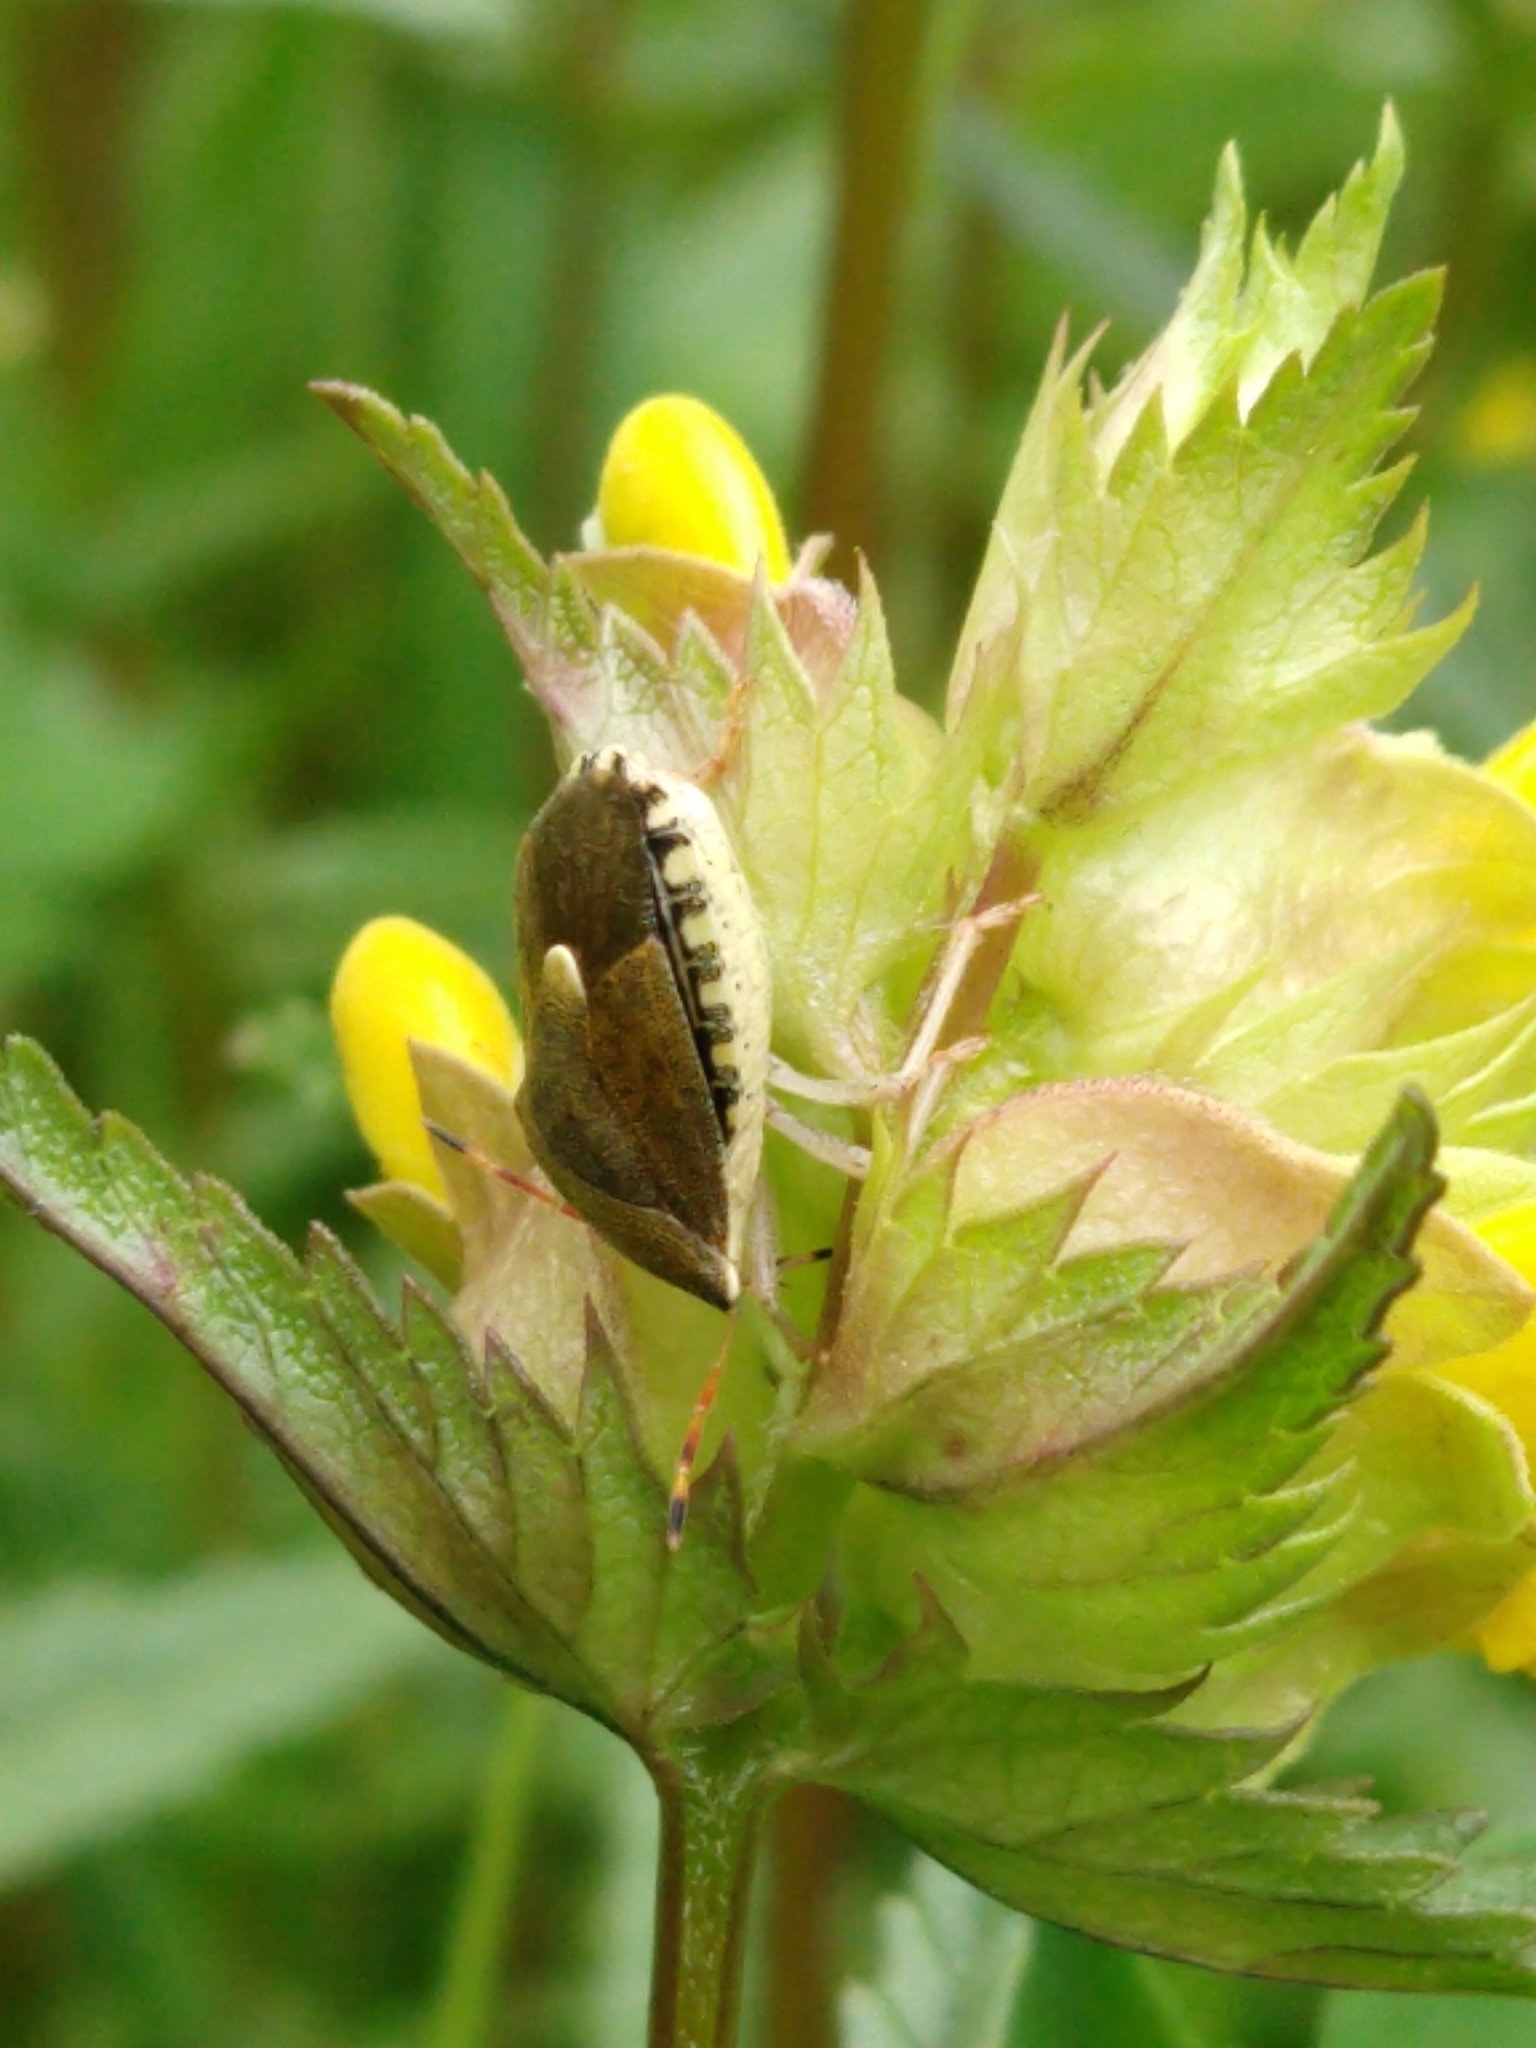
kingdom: Animalia
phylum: Arthropoda
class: Insecta
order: Hemiptera
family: Pentatomidae
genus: Holcostethus
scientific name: Holcostethus strictus
